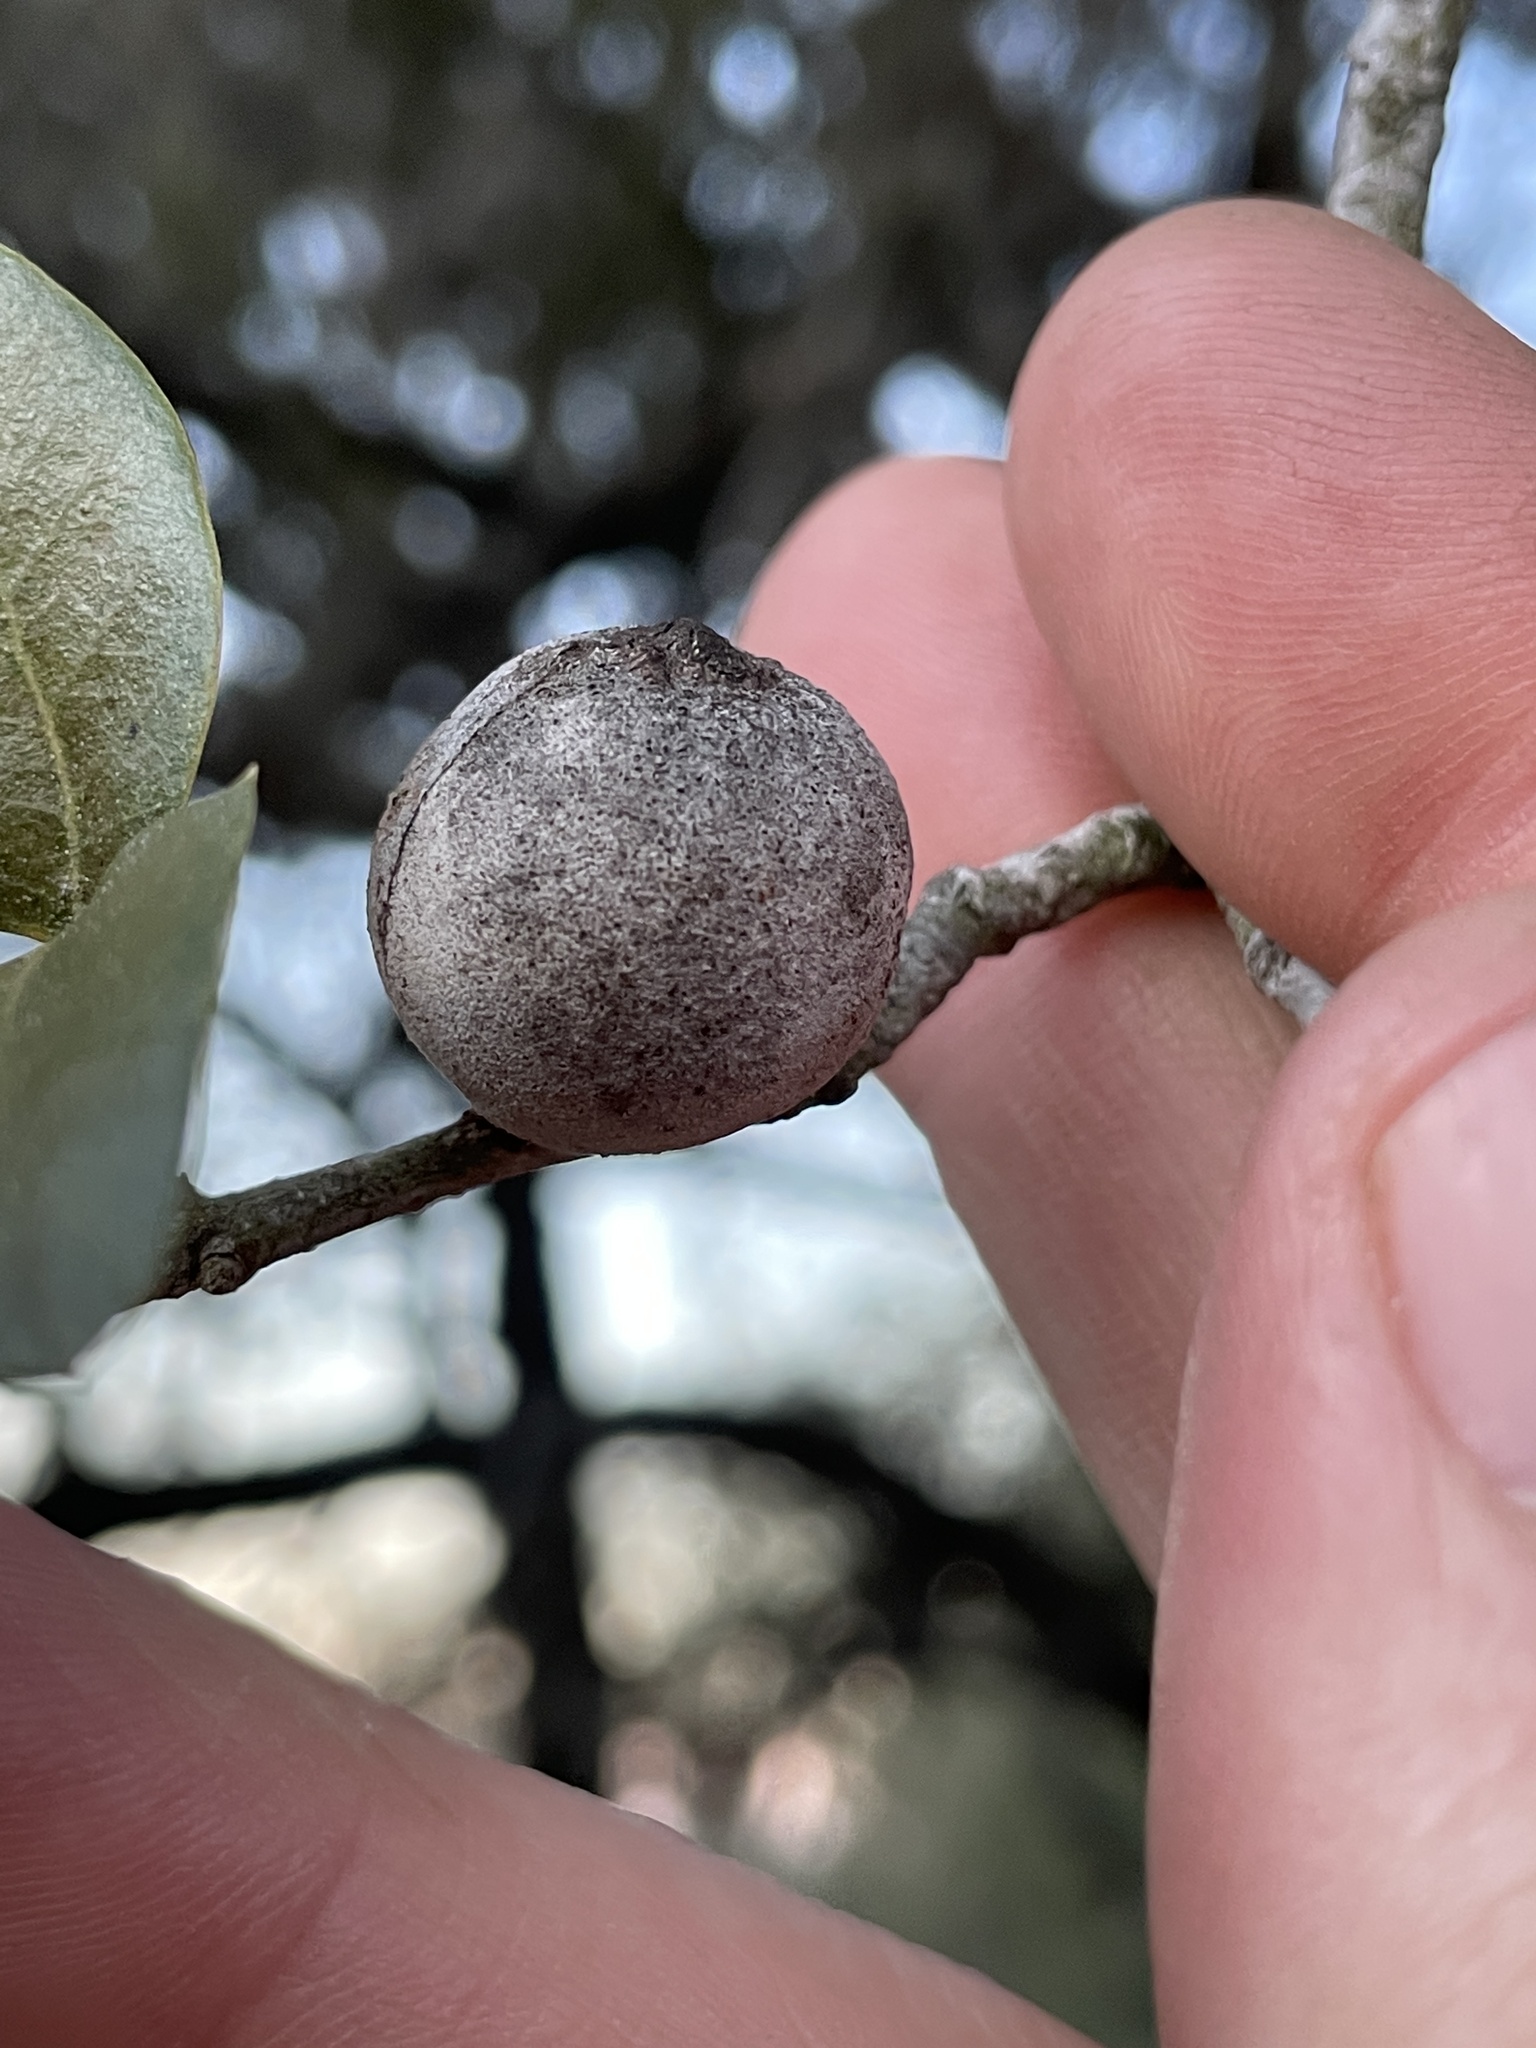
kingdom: Animalia
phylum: Arthropoda
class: Insecta
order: Hymenoptera
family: Cynipidae
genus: Disholcaspis
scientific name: Disholcaspis
